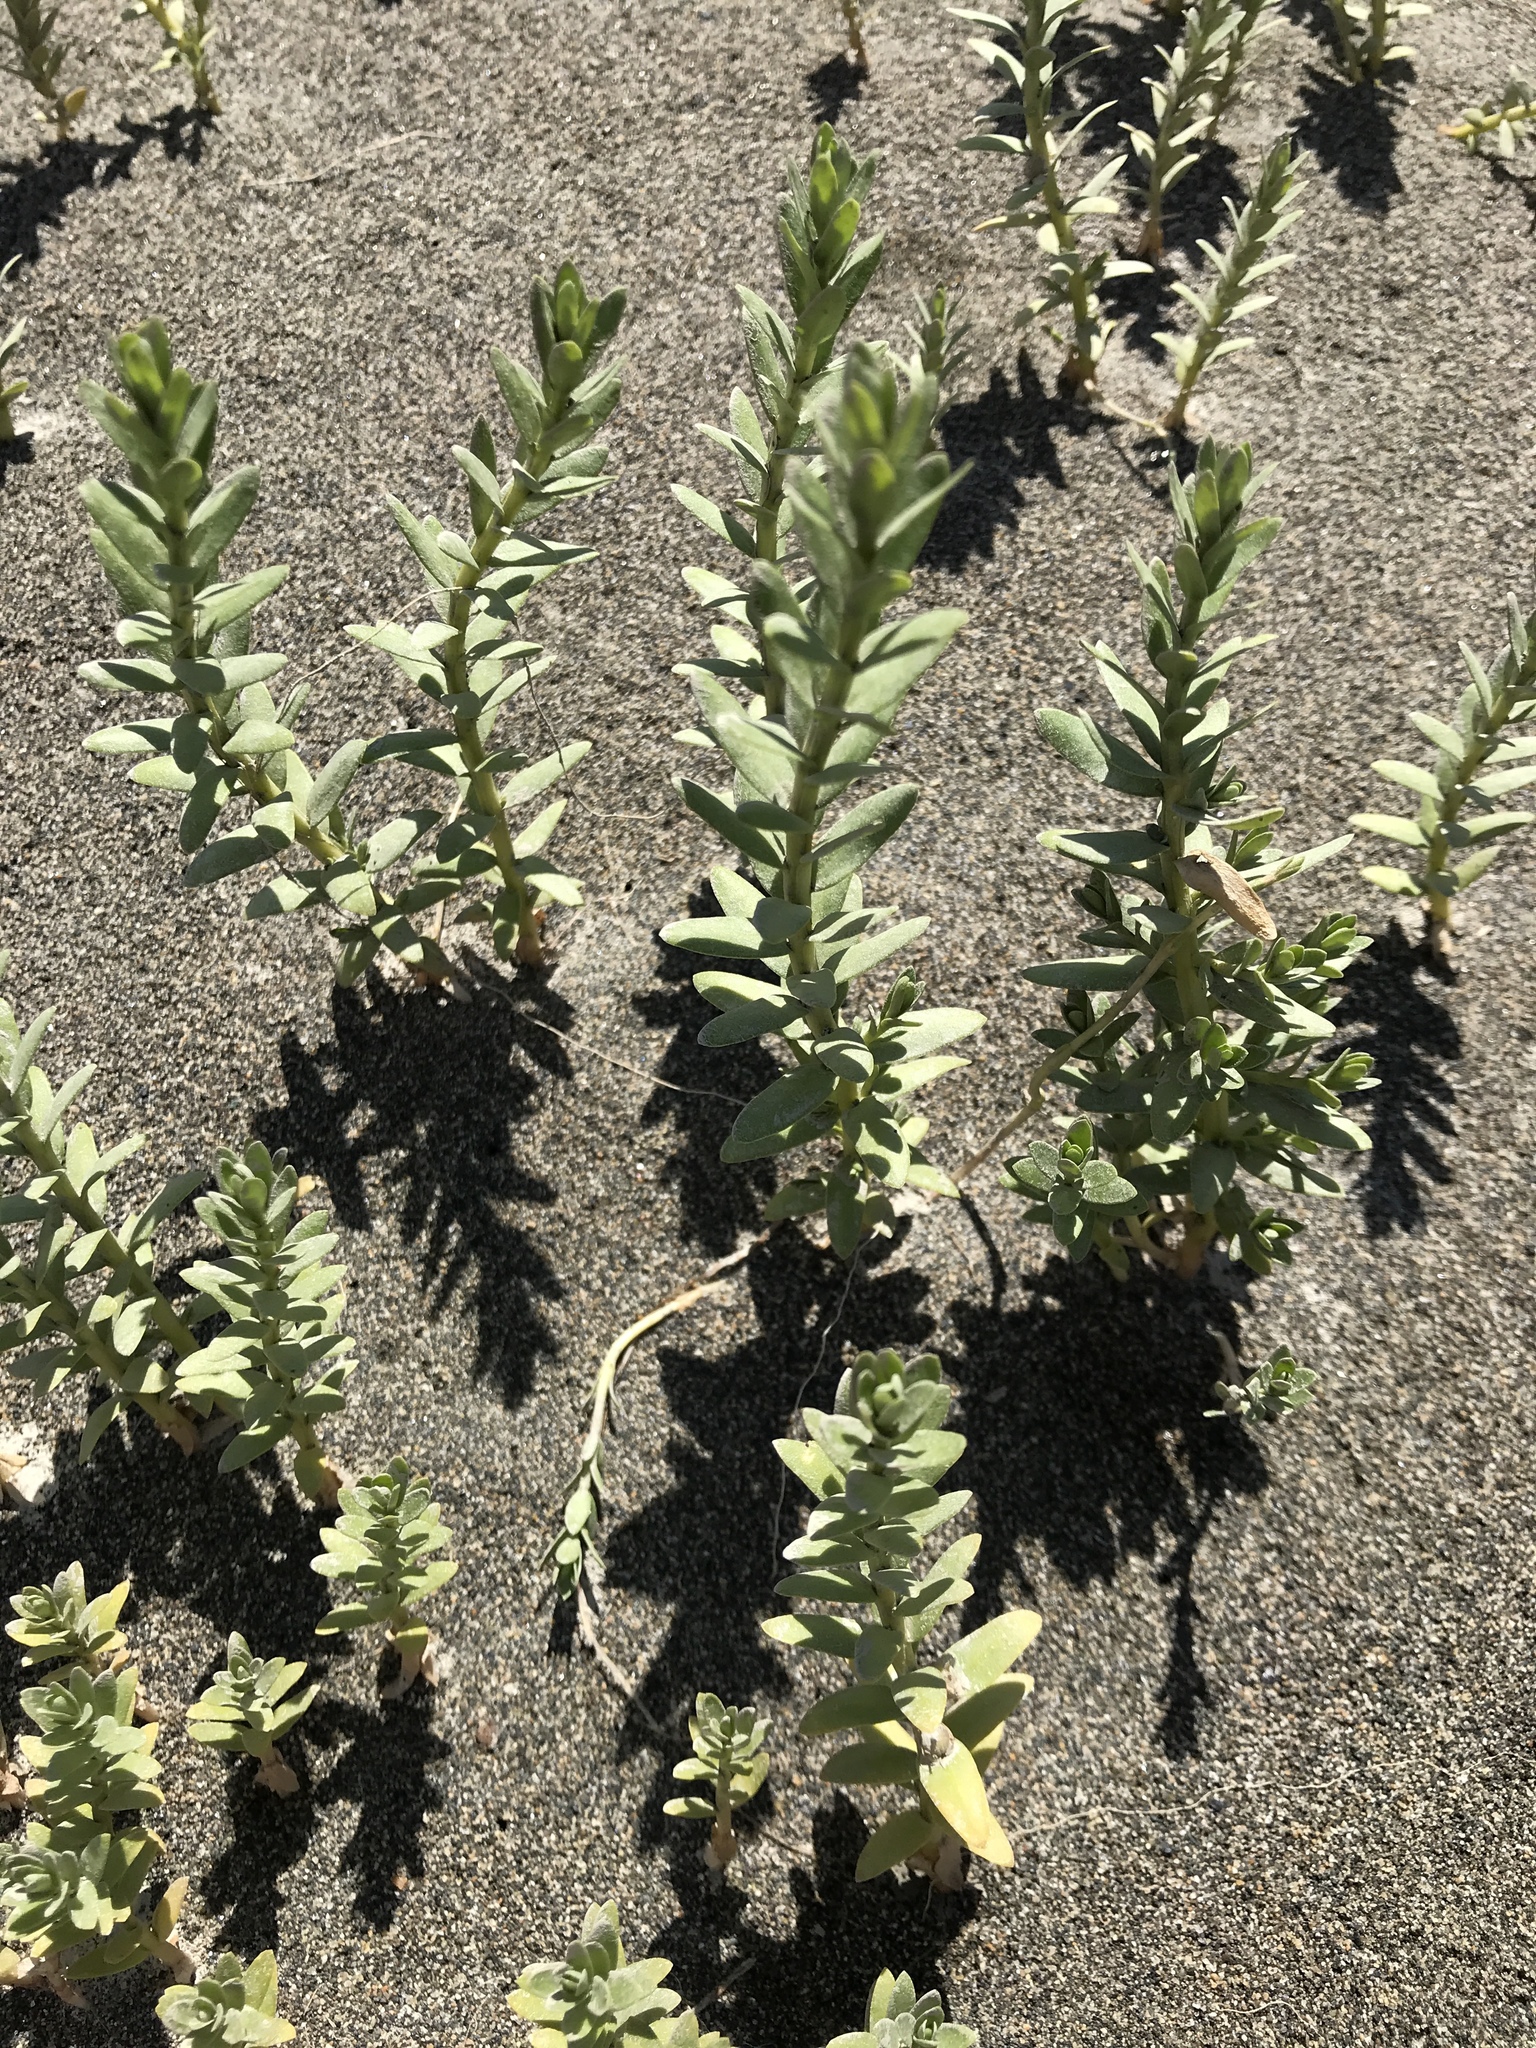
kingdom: Plantae
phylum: Tracheophyta
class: Magnoliopsida
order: Ericales
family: Primulaceae
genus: Lysimachia
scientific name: Lysimachia maritima
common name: Sea milkwort
